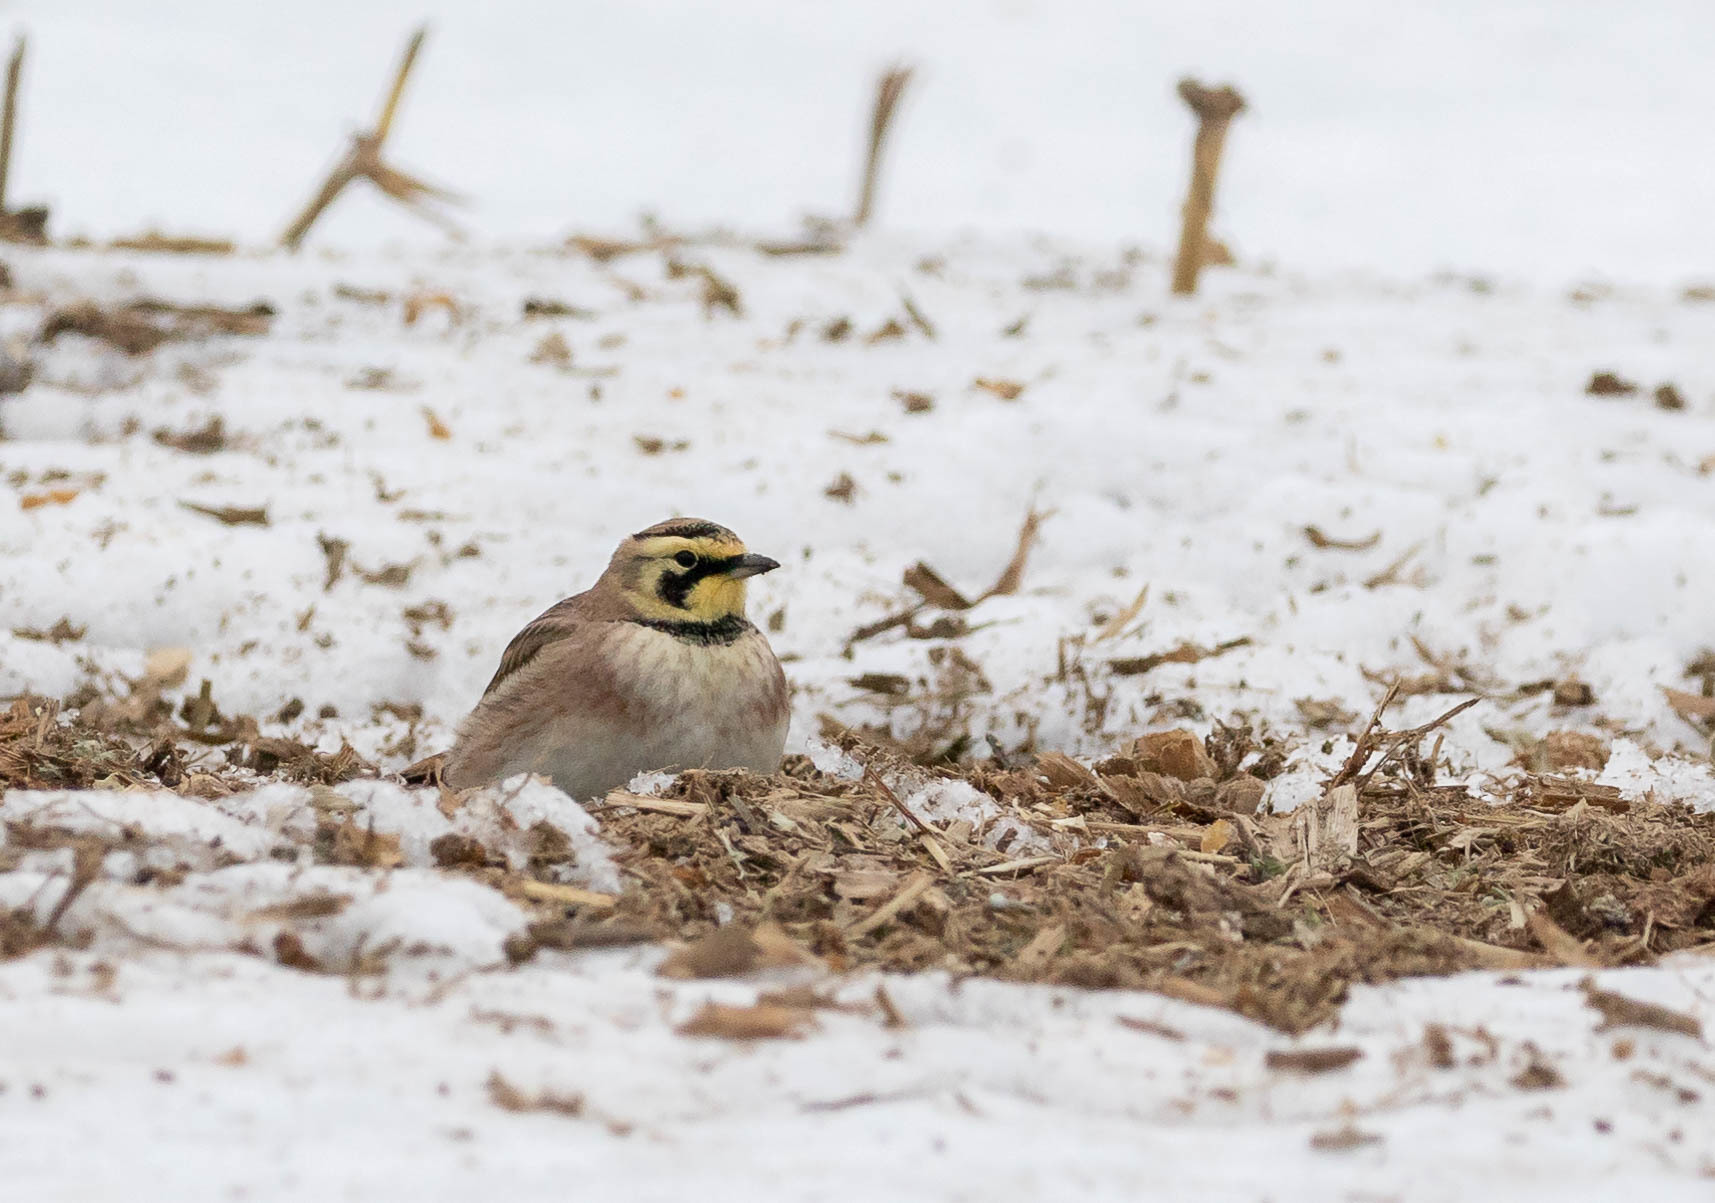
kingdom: Animalia
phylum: Chordata
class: Aves
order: Passeriformes
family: Alaudidae
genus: Eremophila
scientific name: Eremophila alpestris
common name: Horned lark
